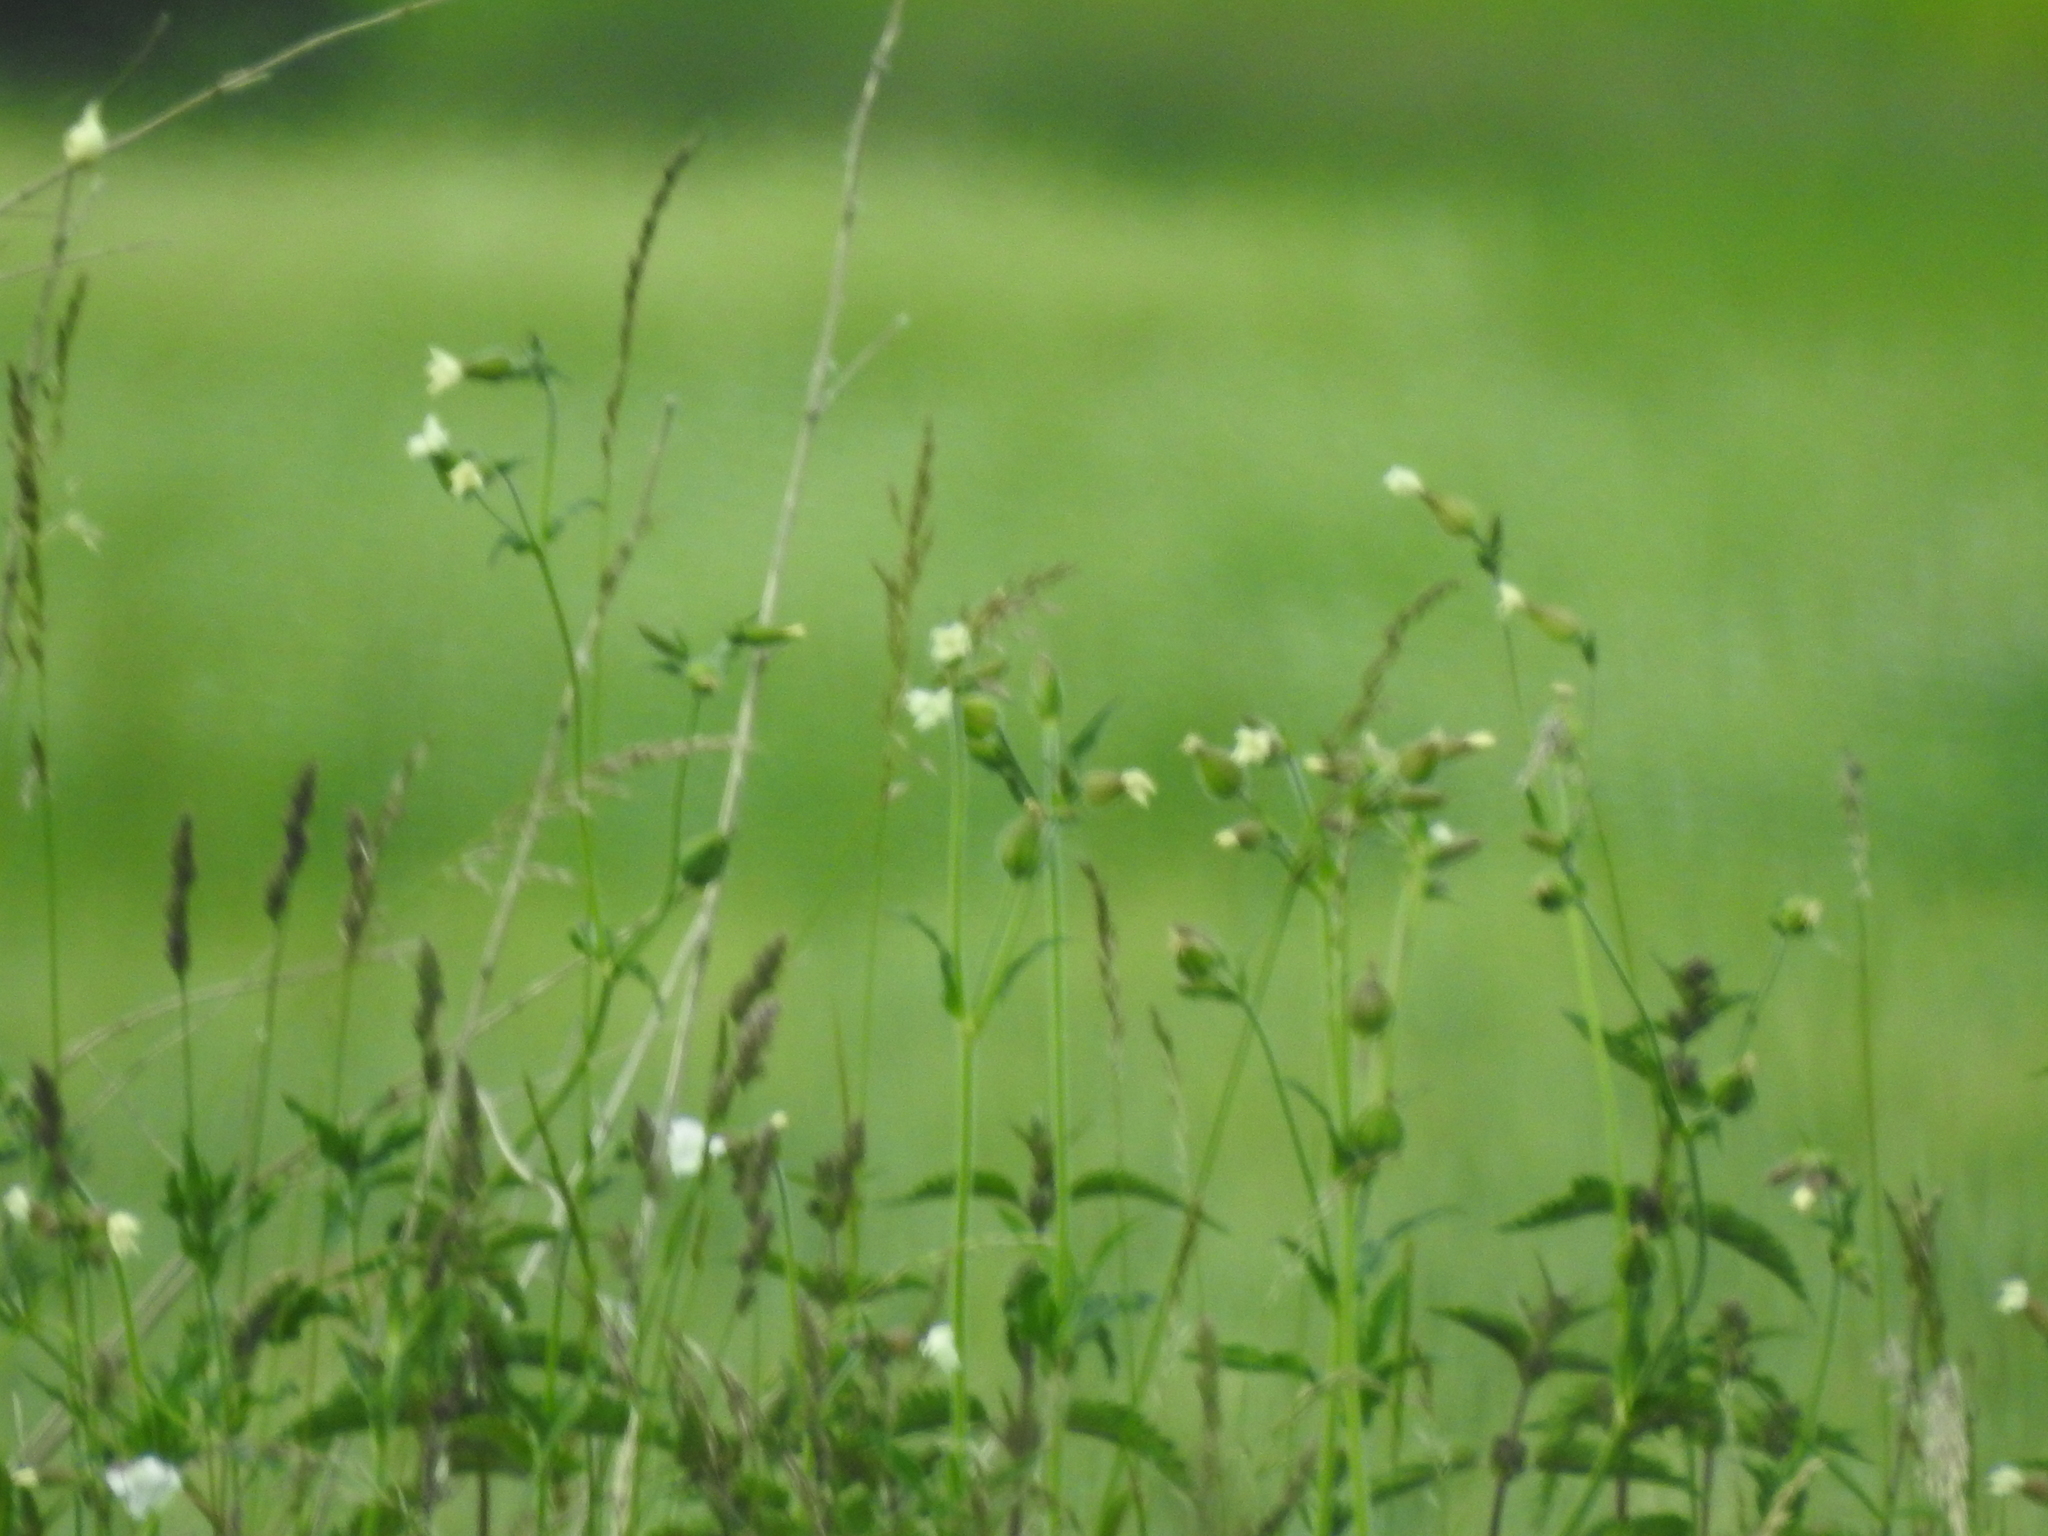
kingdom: Plantae
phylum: Tracheophyta
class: Magnoliopsida
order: Caryophyllales
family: Caryophyllaceae
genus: Silene
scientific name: Silene latifolia
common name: White campion
